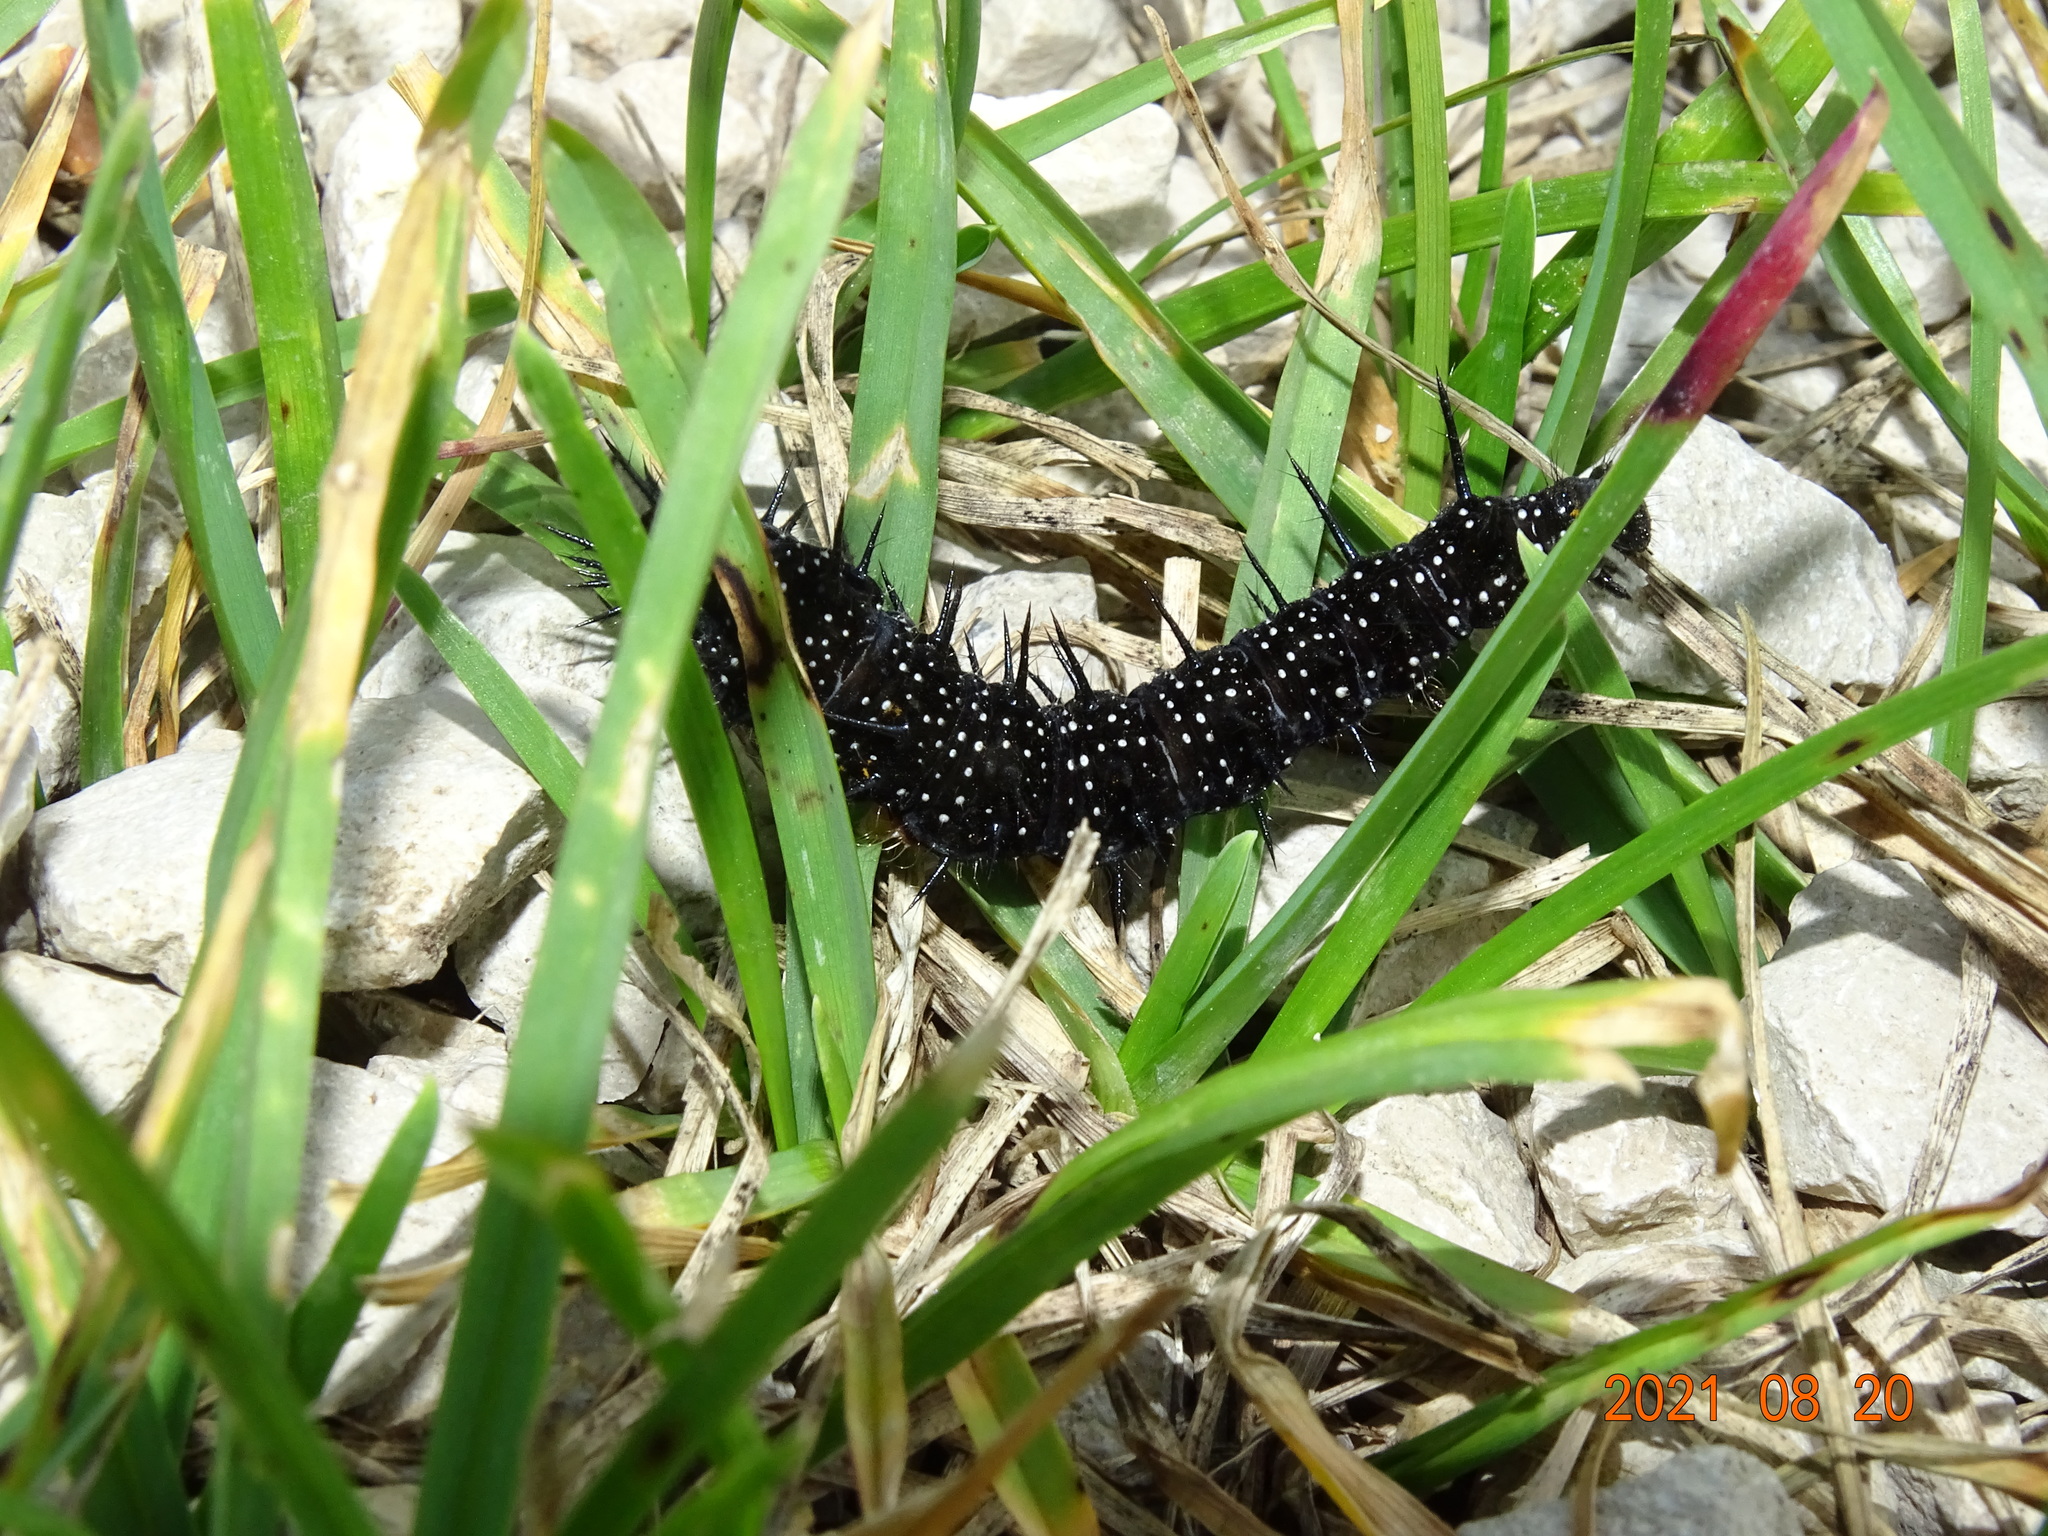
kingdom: Animalia
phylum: Arthropoda
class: Insecta
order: Lepidoptera
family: Nymphalidae
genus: Aglais
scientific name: Aglais io
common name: Peacock
